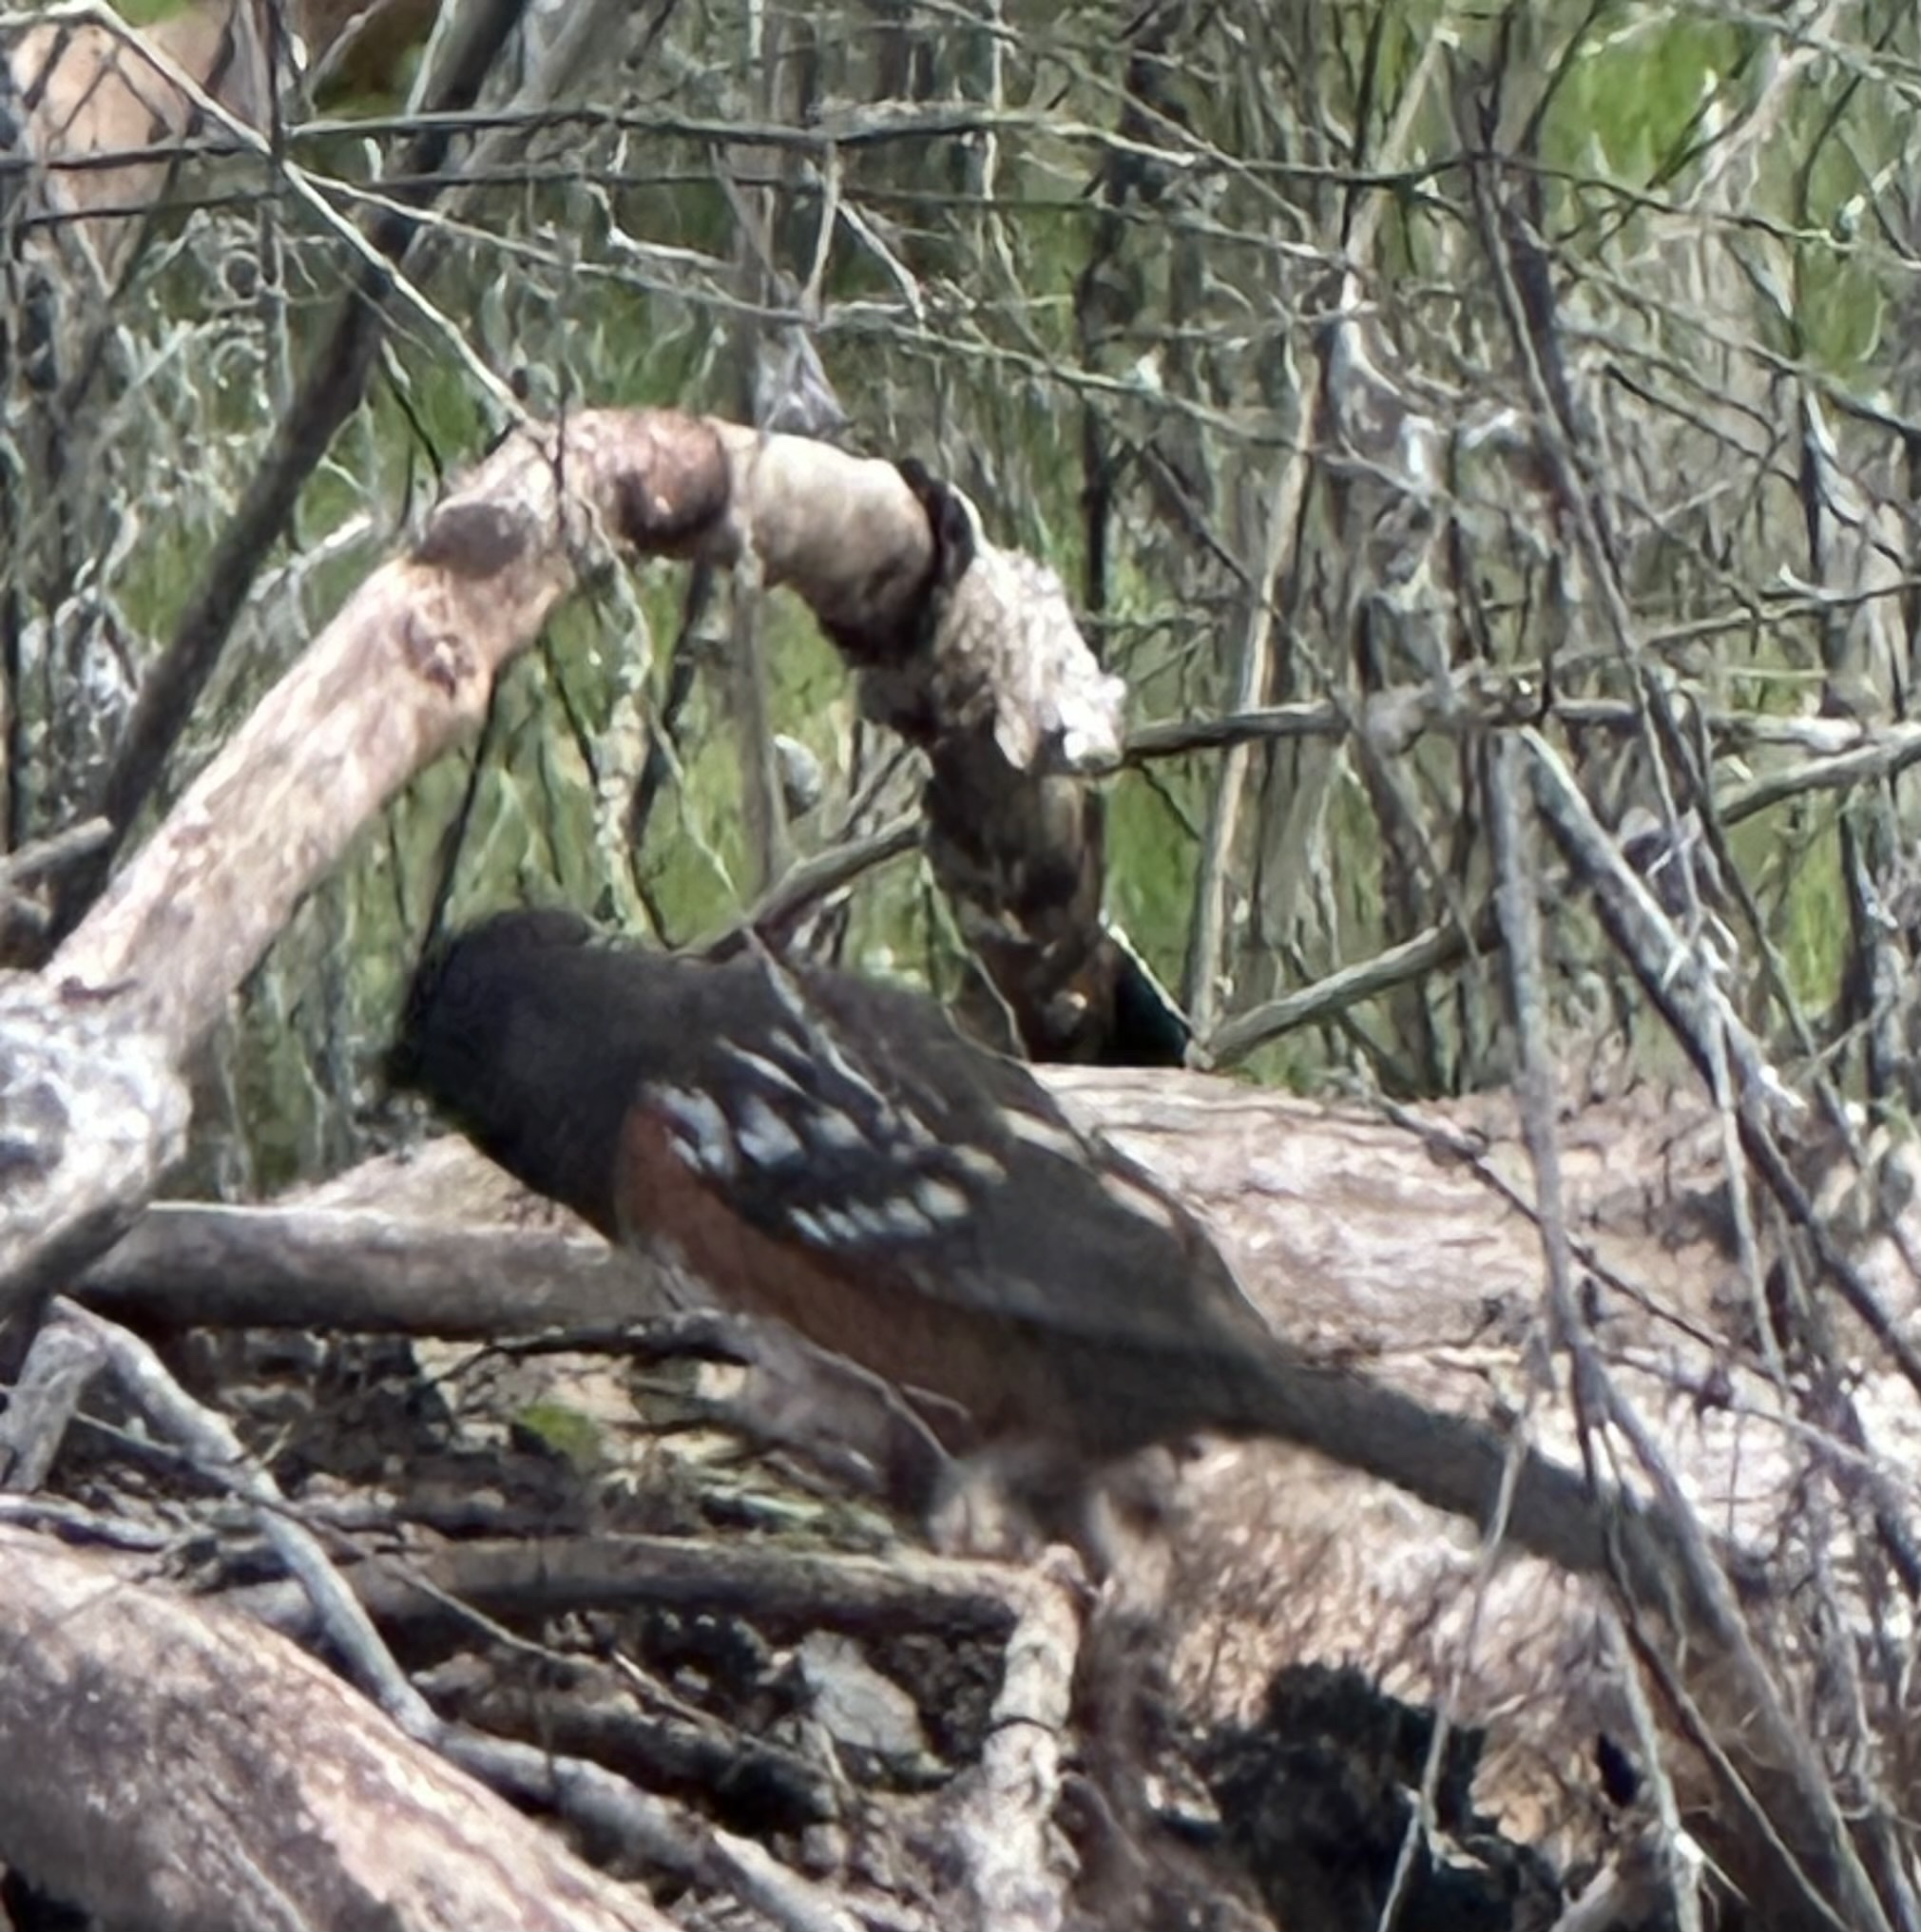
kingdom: Animalia
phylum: Chordata
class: Aves
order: Passeriformes
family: Passerellidae
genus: Pipilo
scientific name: Pipilo maculatus
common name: Spotted towhee
